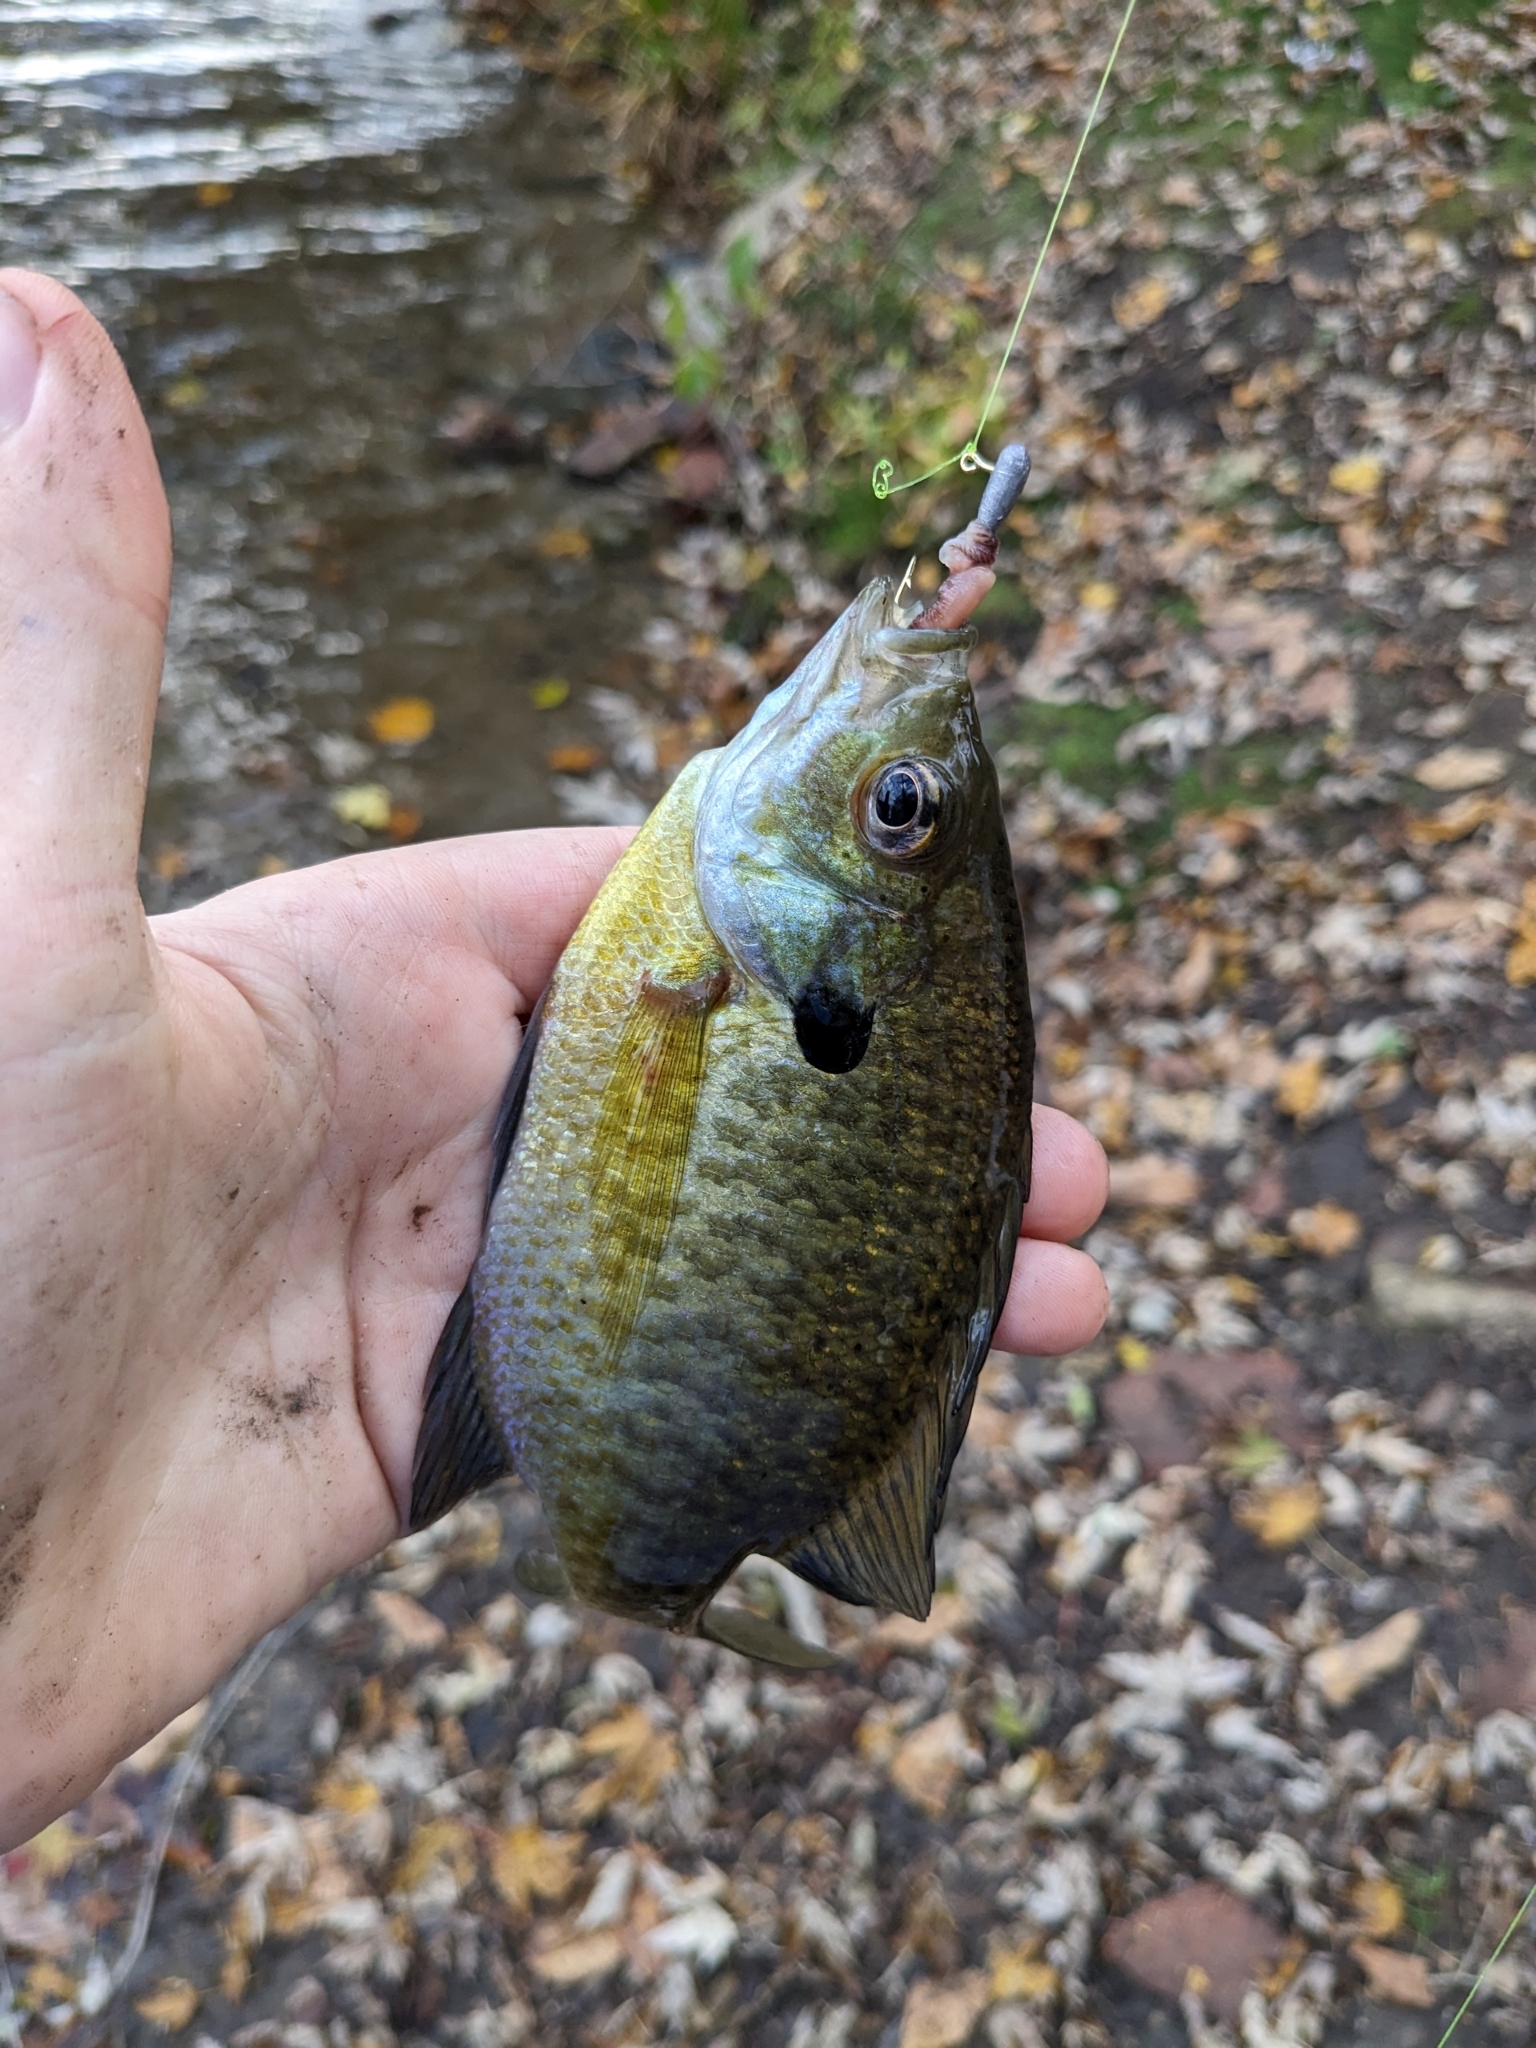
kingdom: Animalia
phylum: Chordata
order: Perciformes
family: Centrarchidae
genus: Lepomis
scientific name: Lepomis macrochirus
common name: Bluegill
